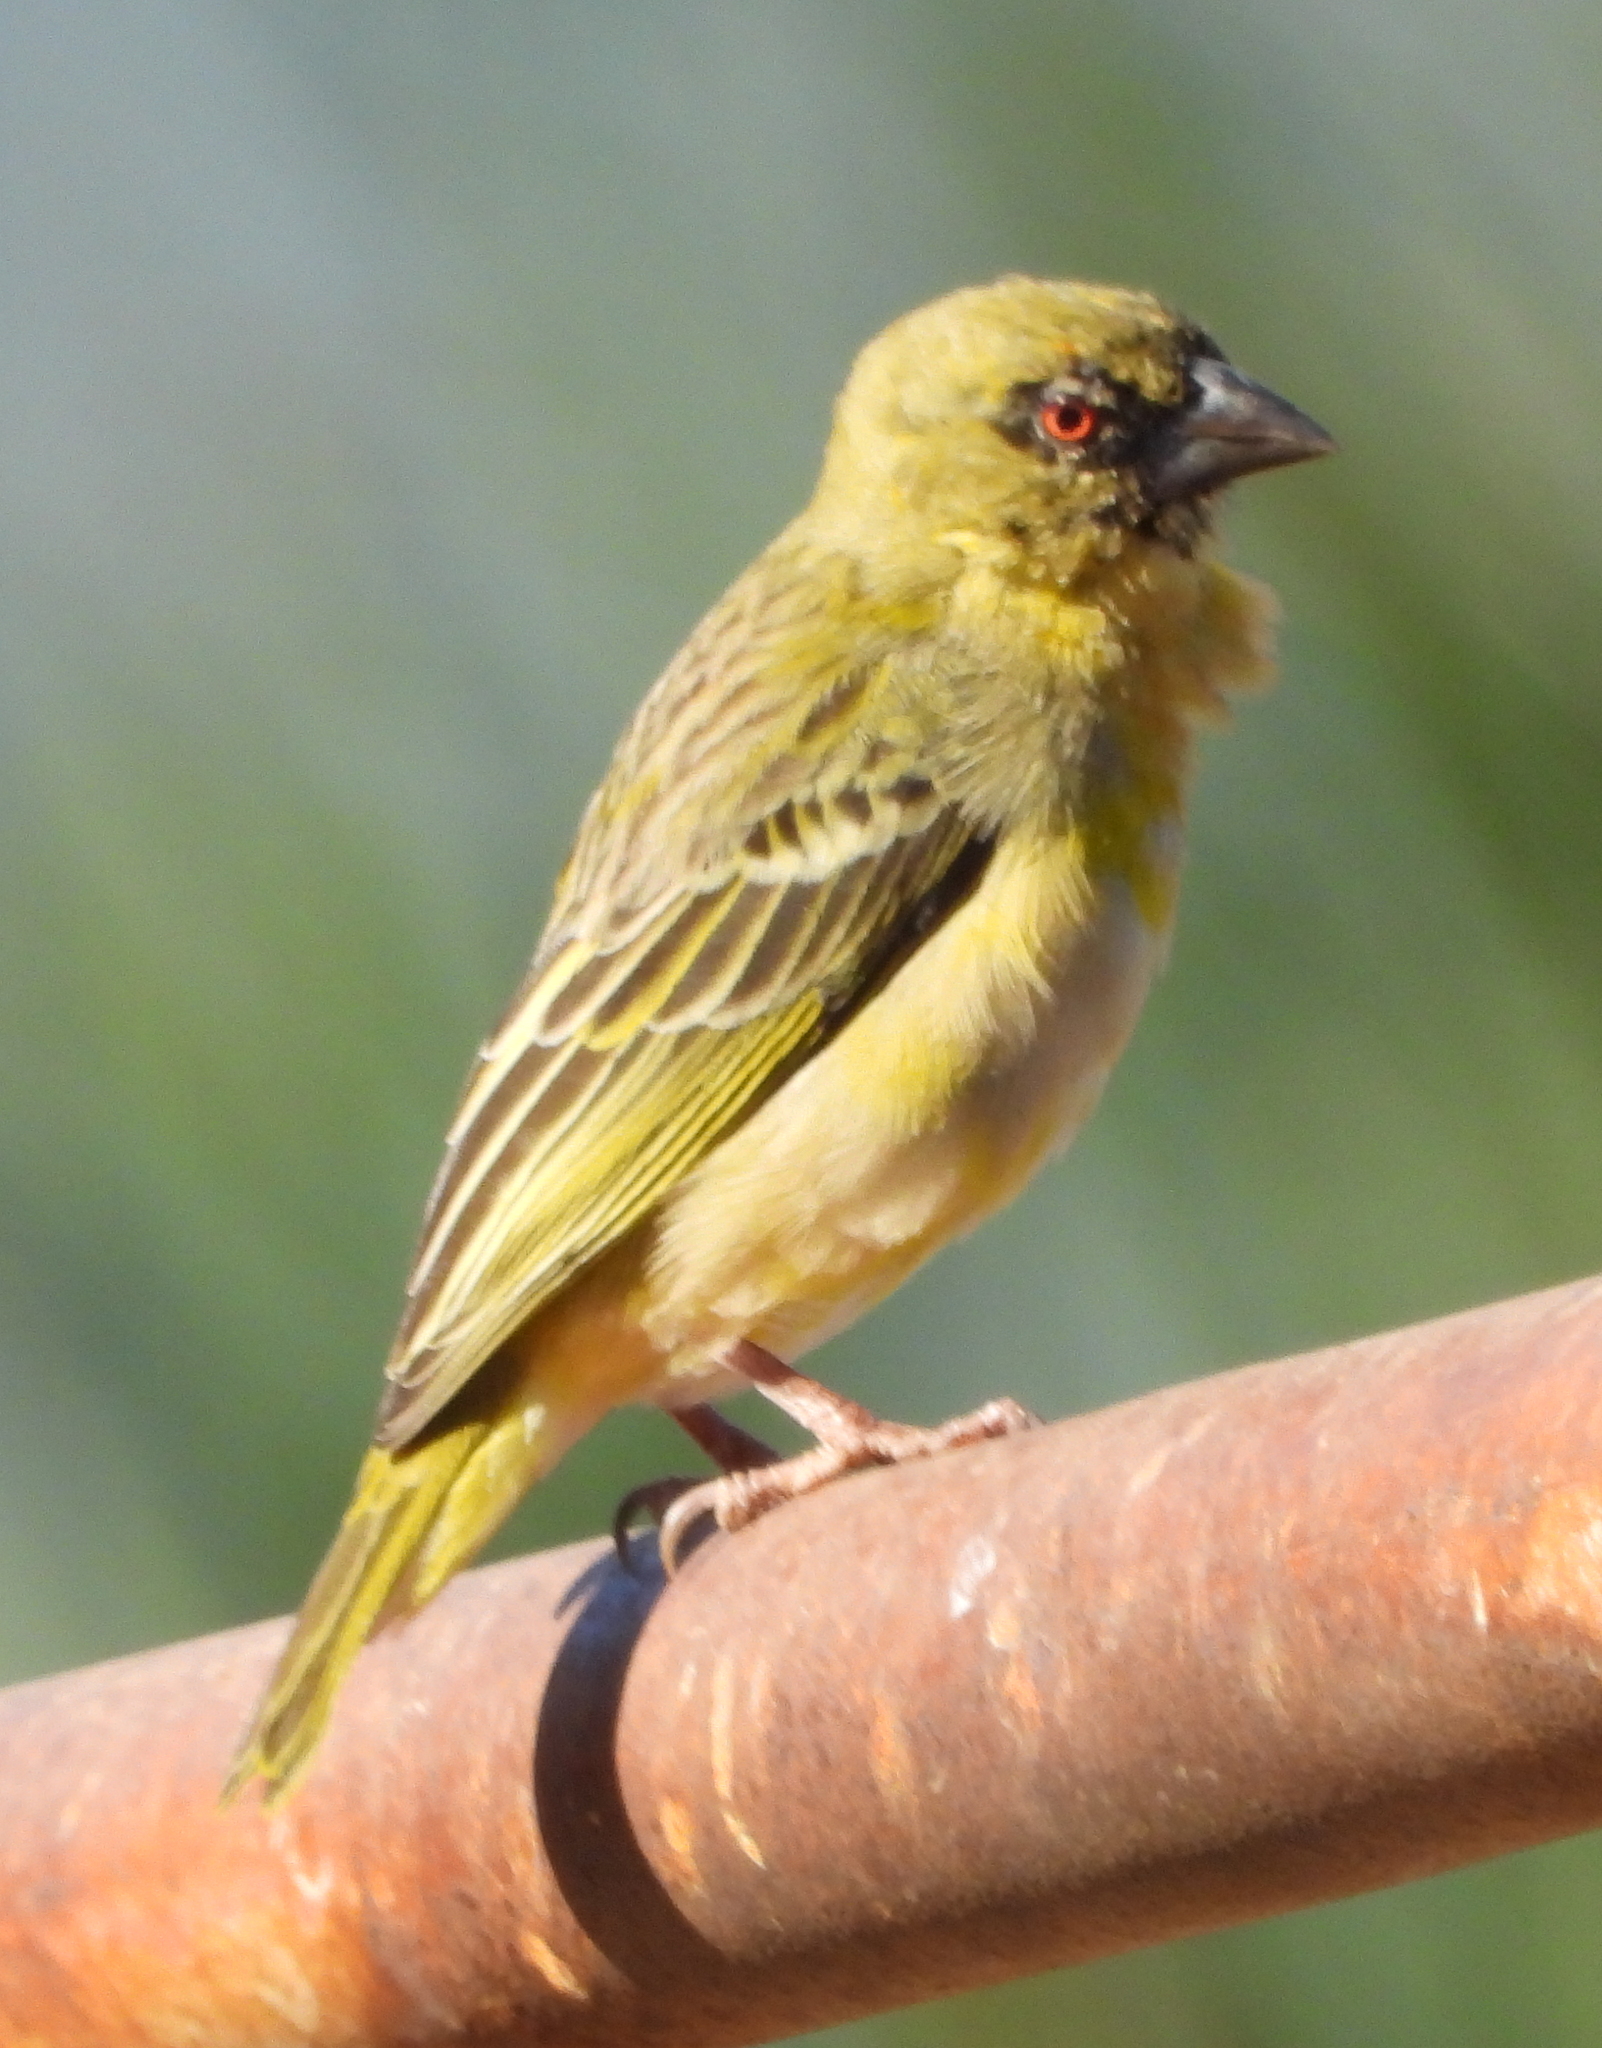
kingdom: Animalia
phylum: Chordata
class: Aves
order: Passeriformes
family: Ploceidae
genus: Ploceus
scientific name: Ploceus velatus
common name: Southern masked weaver
